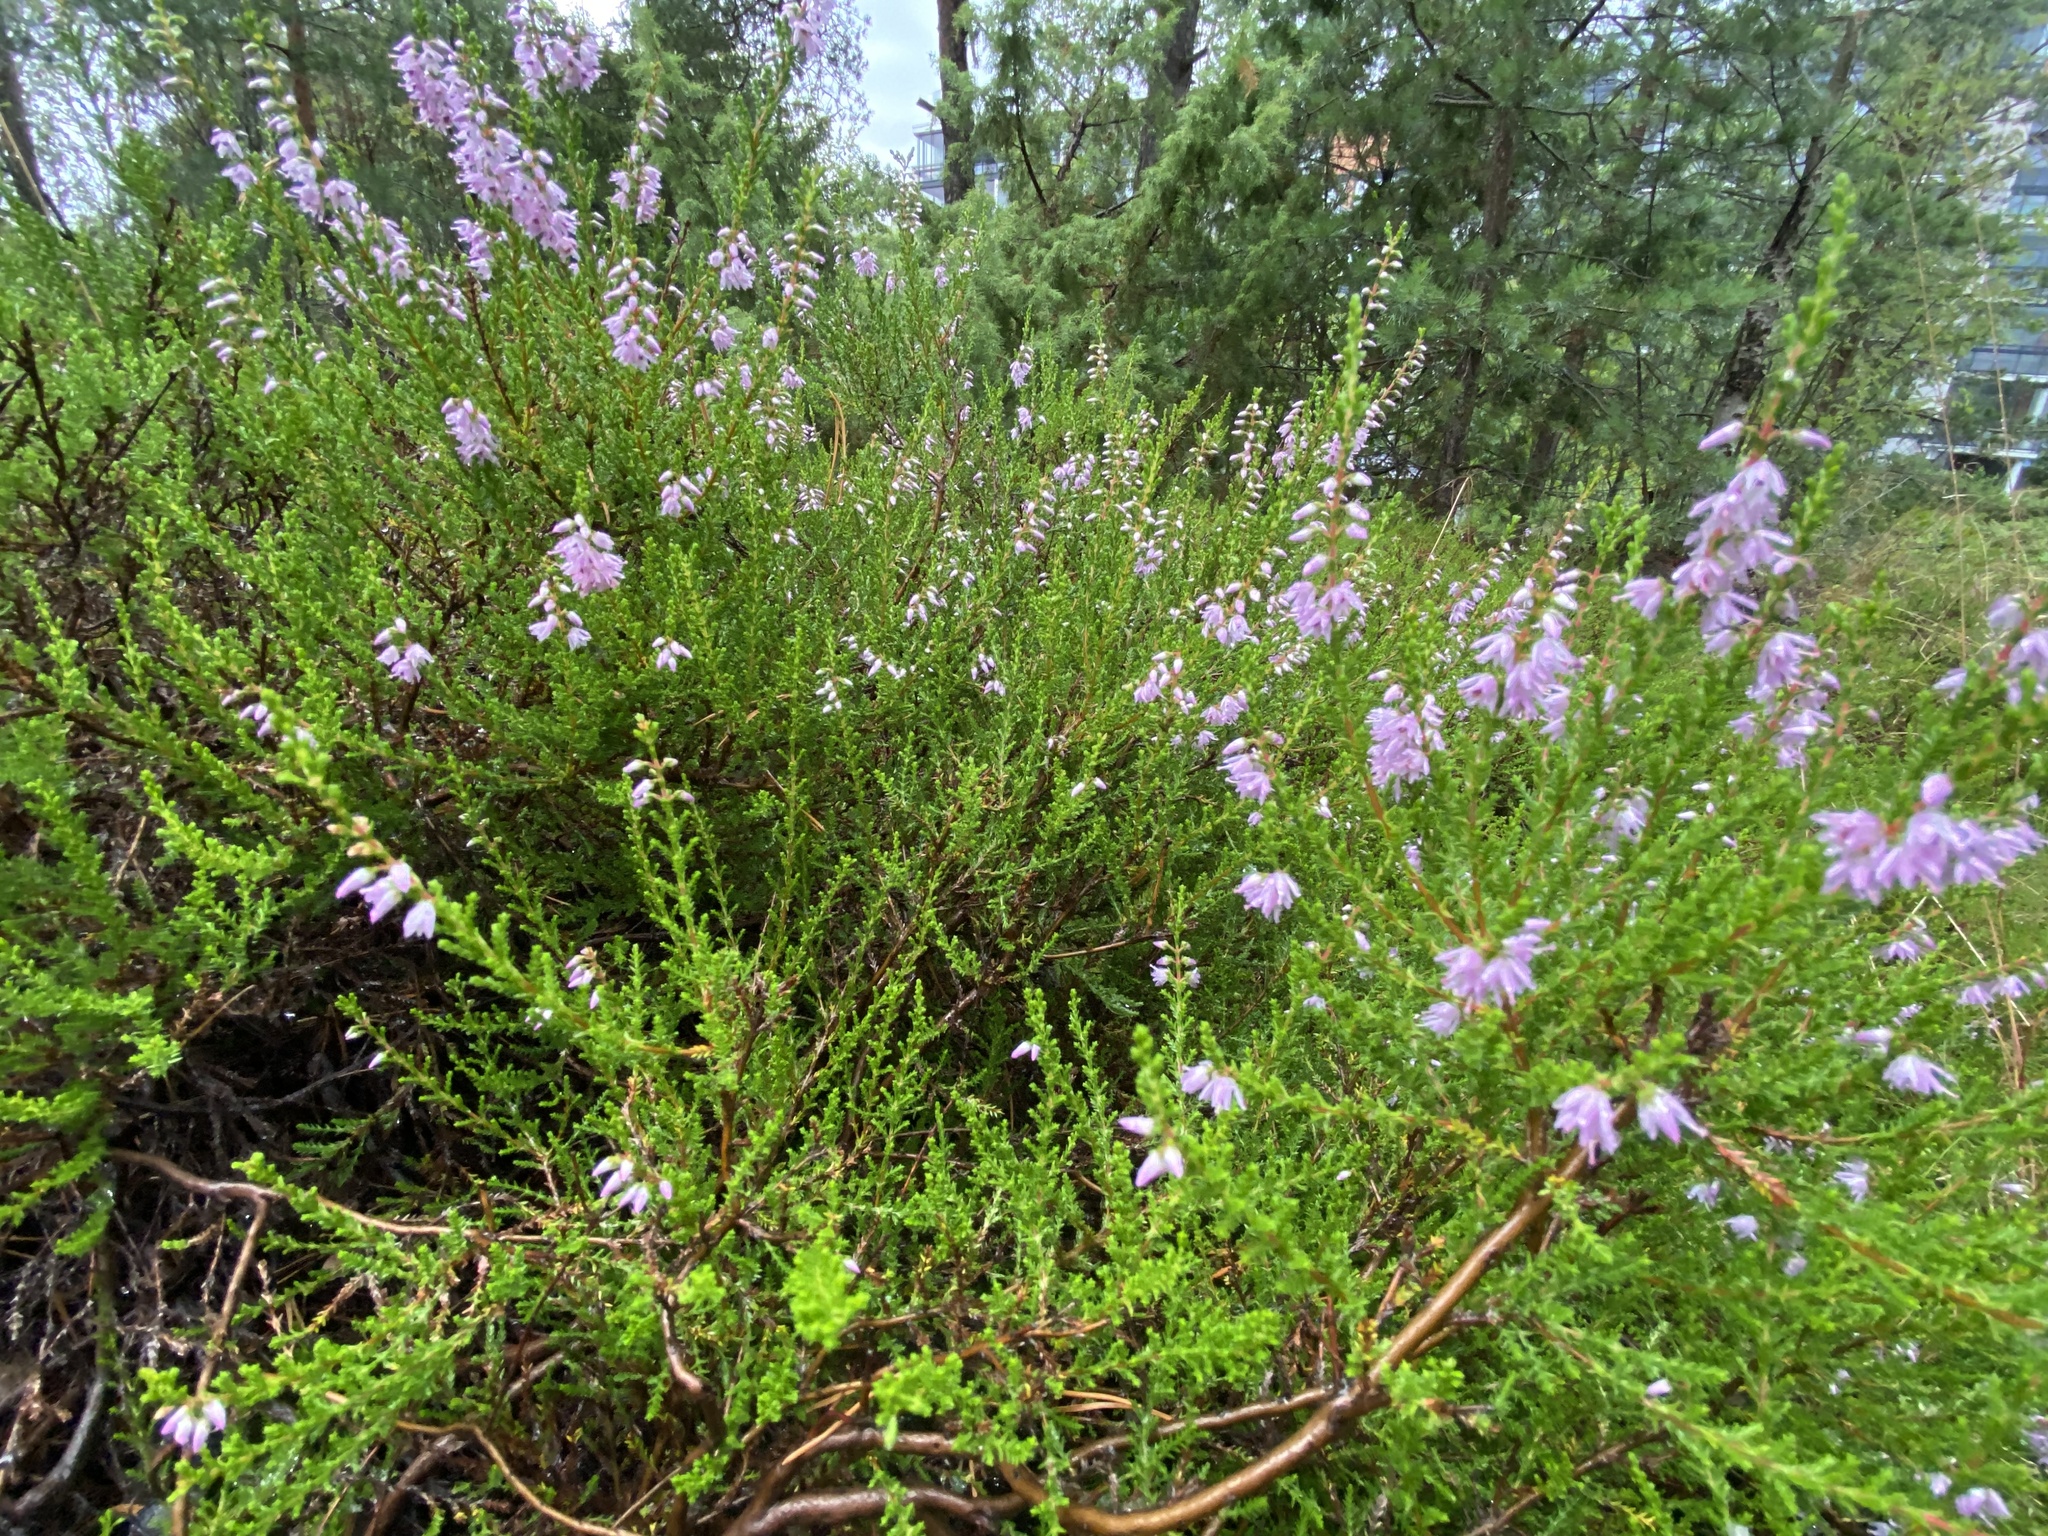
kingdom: Plantae
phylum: Tracheophyta
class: Magnoliopsida
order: Ericales
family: Ericaceae
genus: Calluna
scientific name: Calluna vulgaris
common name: Heather
